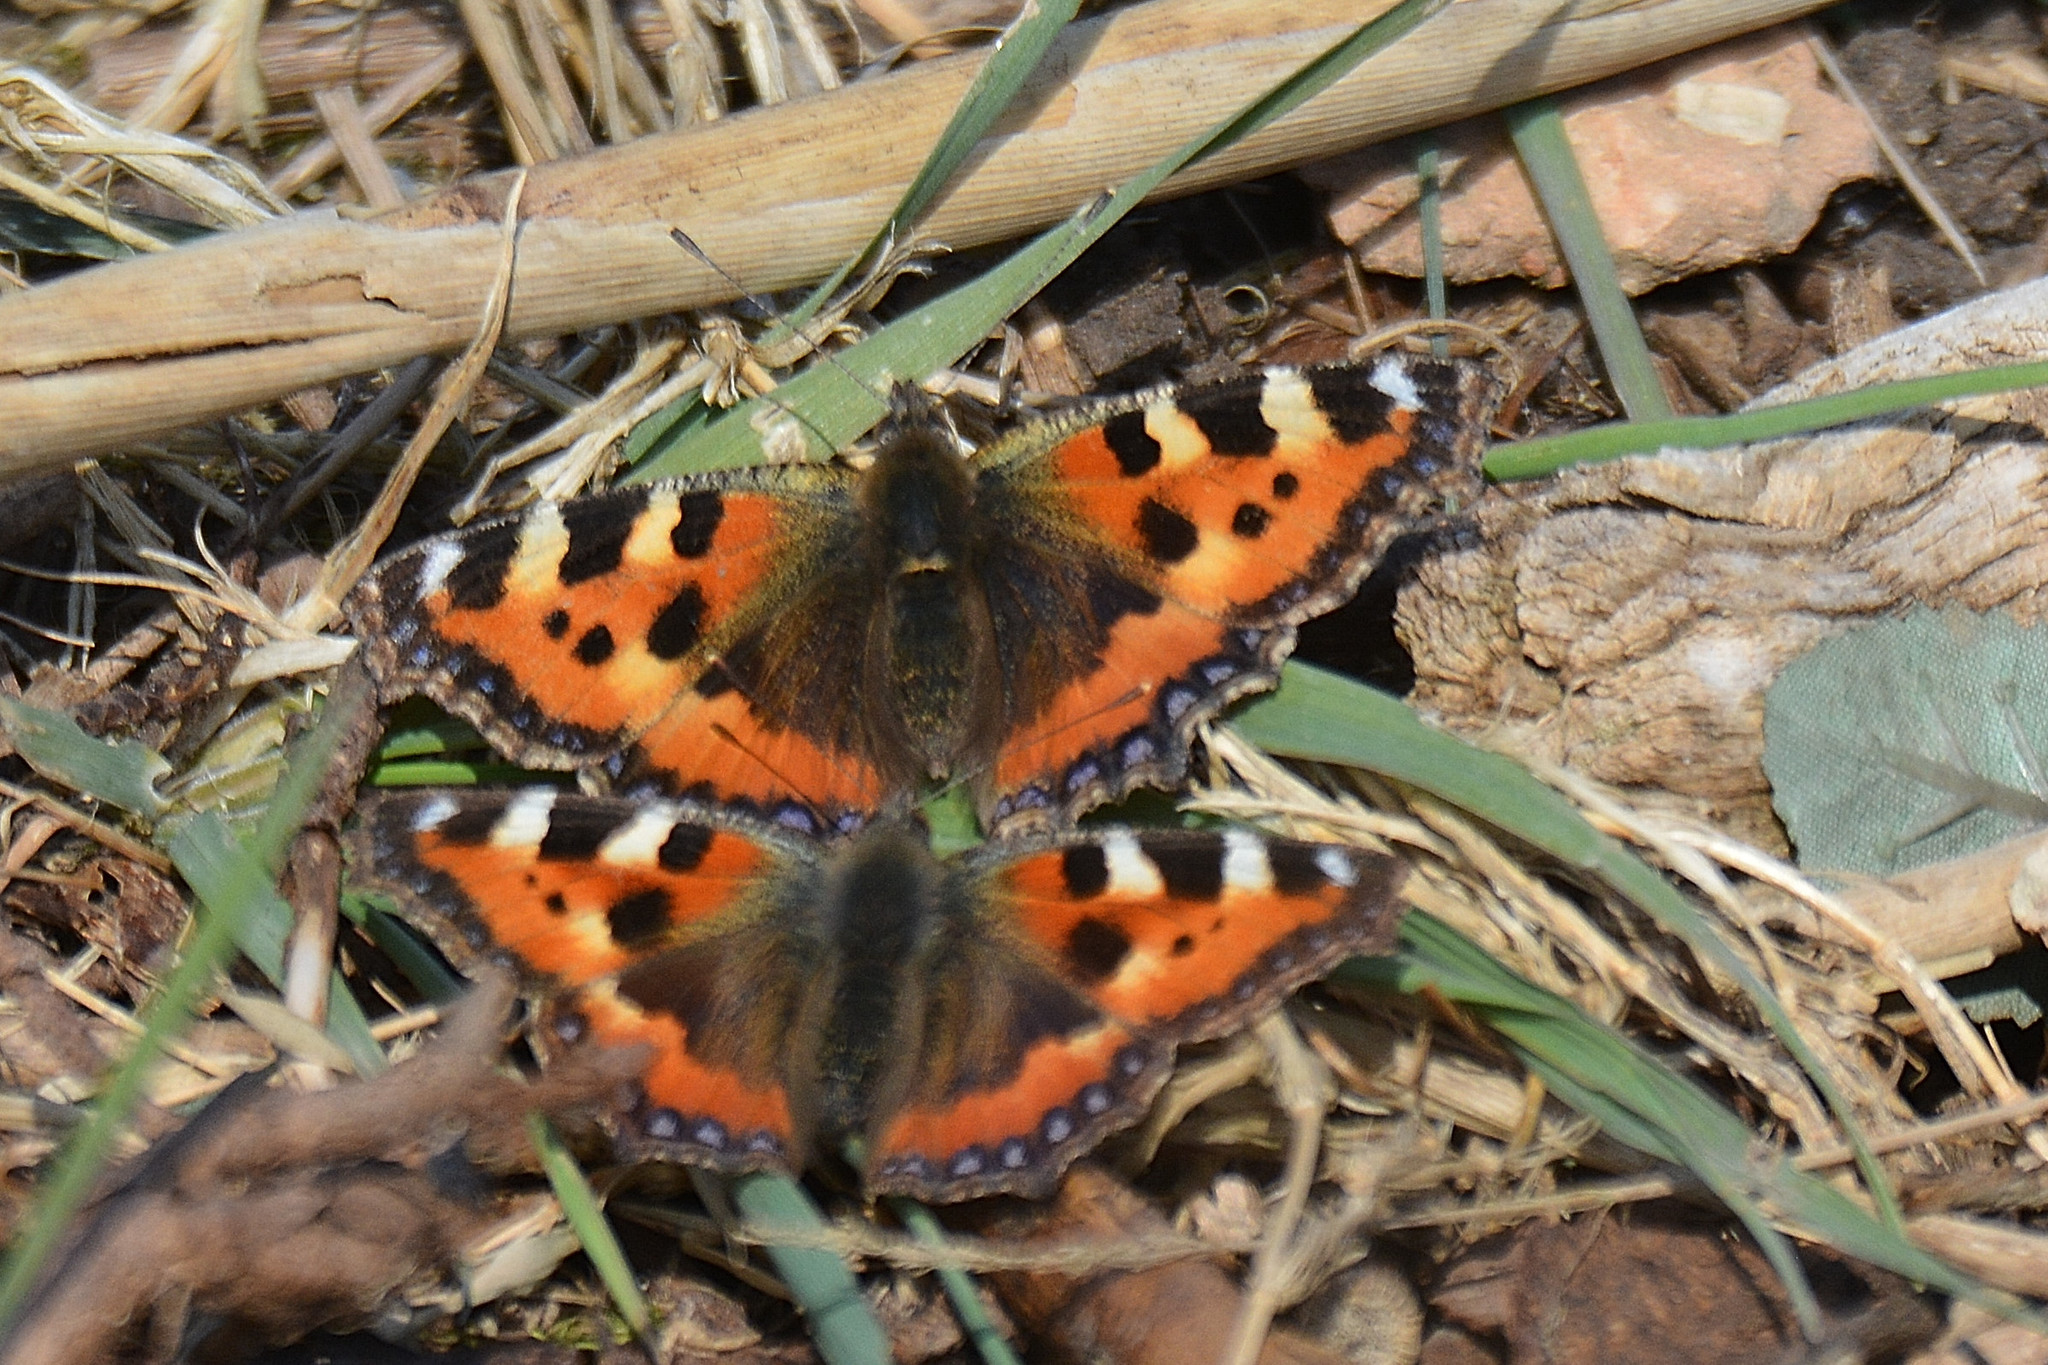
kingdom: Animalia
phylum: Arthropoda
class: Insecta
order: Lepidoptera
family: Nymphalidae
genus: Aglais
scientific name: Aglais urticae
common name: Small tortoiseshell
